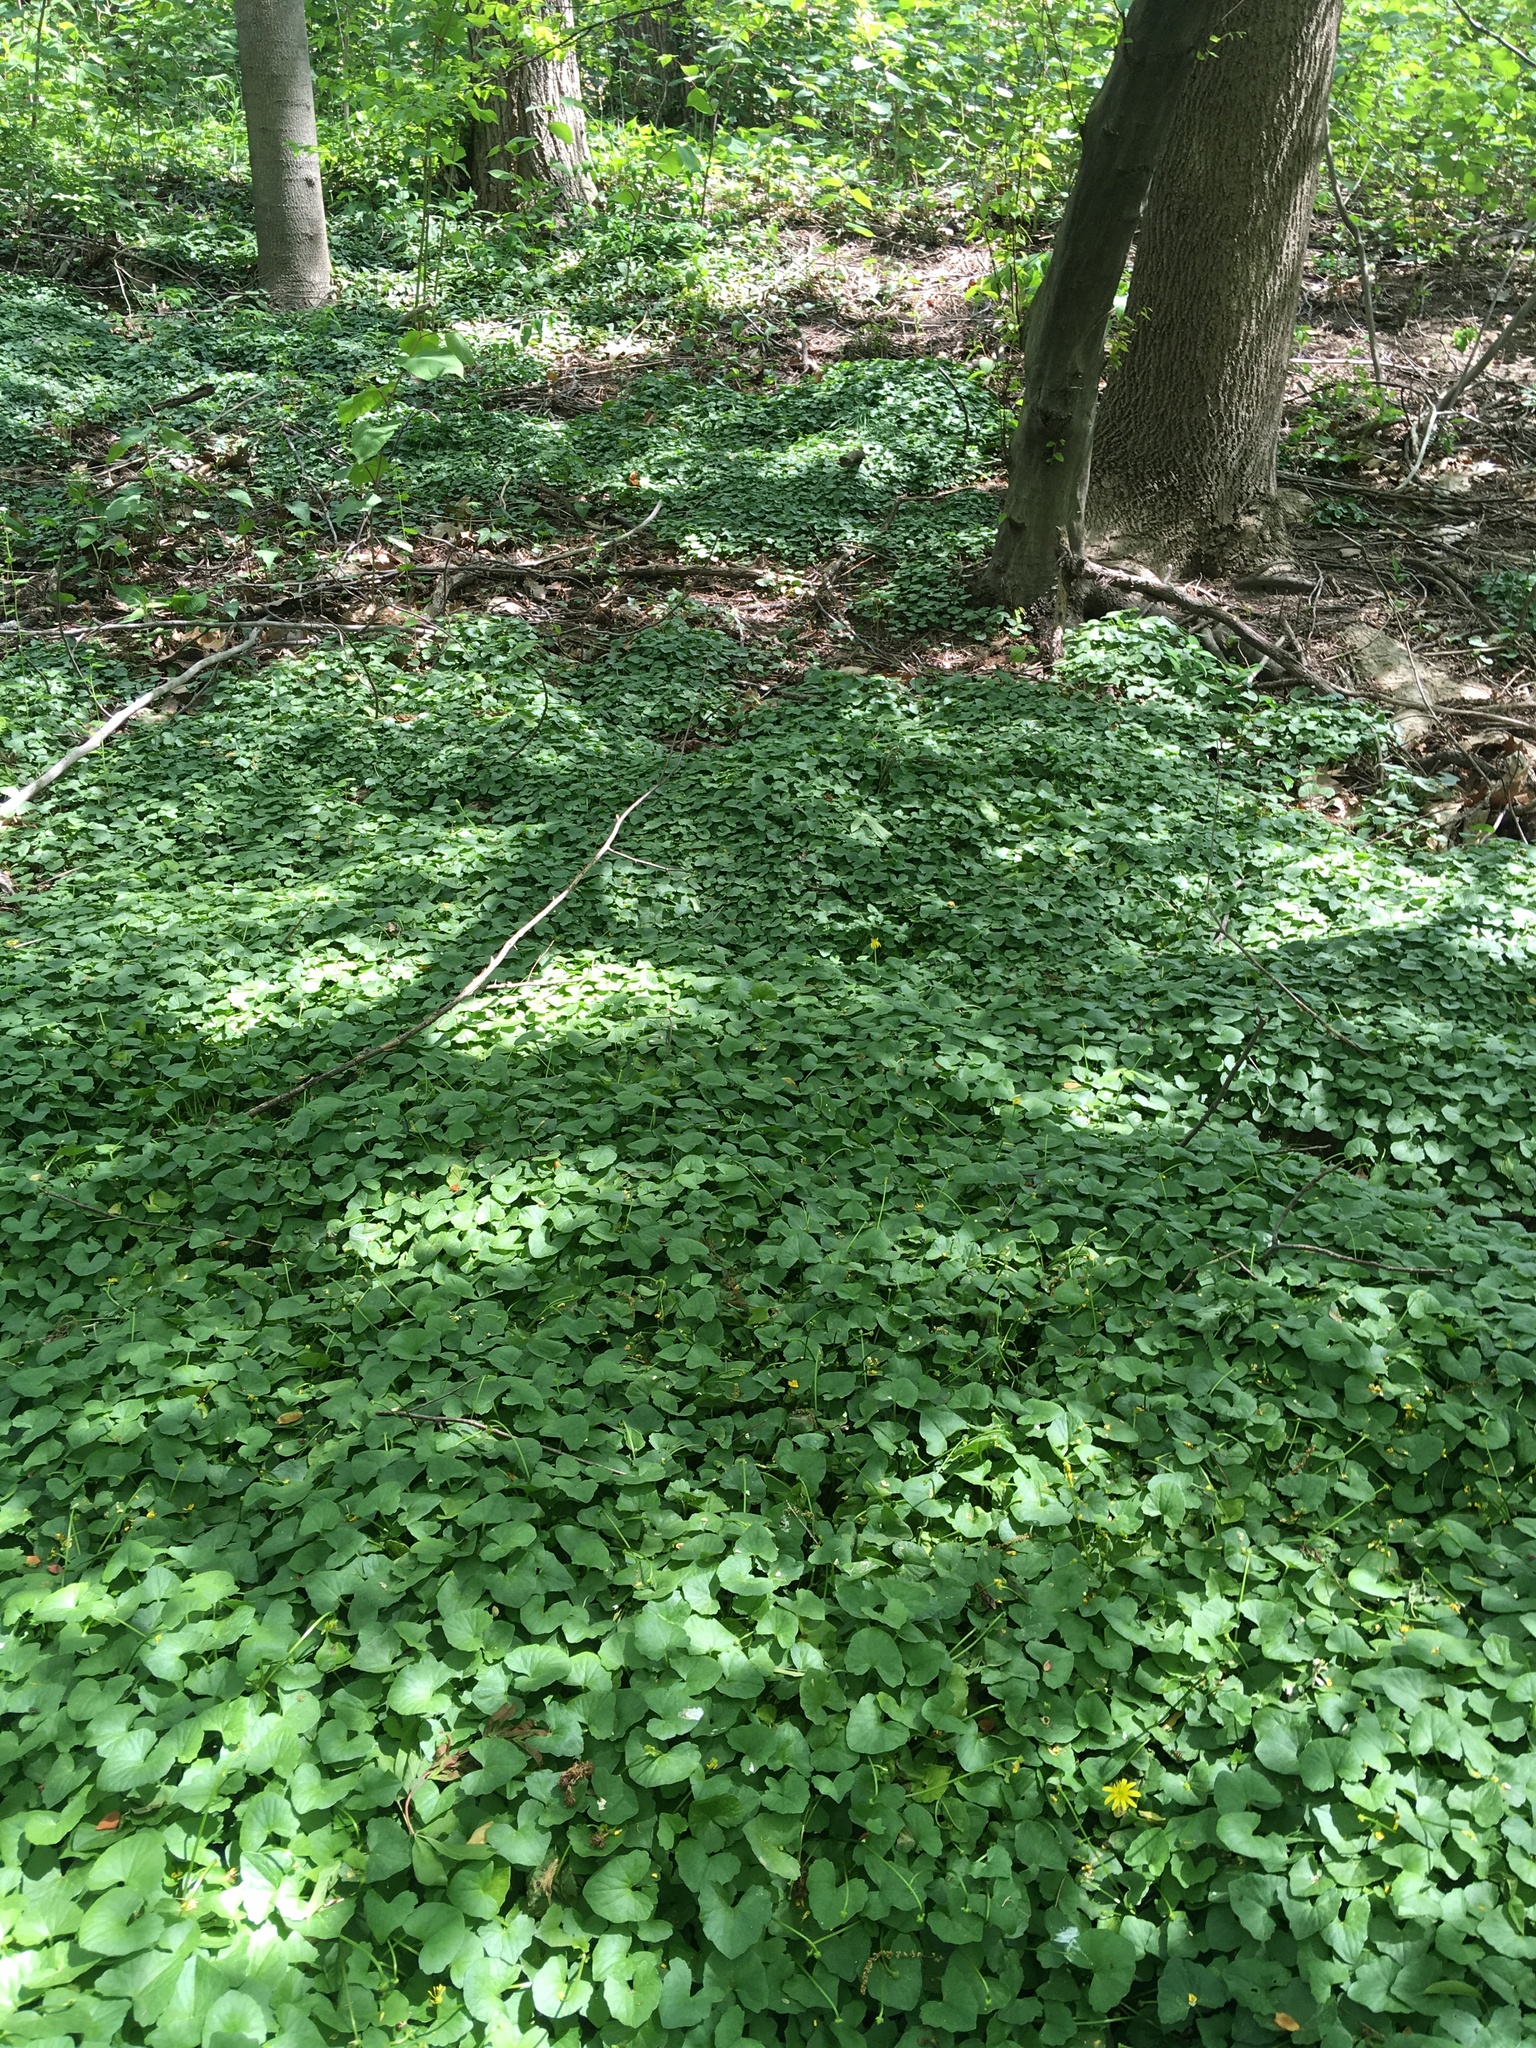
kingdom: Plantae
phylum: Tracheophyta
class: Magnoliopsida
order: Ranunculales
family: Ranunculaceae
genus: Ficaria
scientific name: Ficaria verna
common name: Lesser celandine
